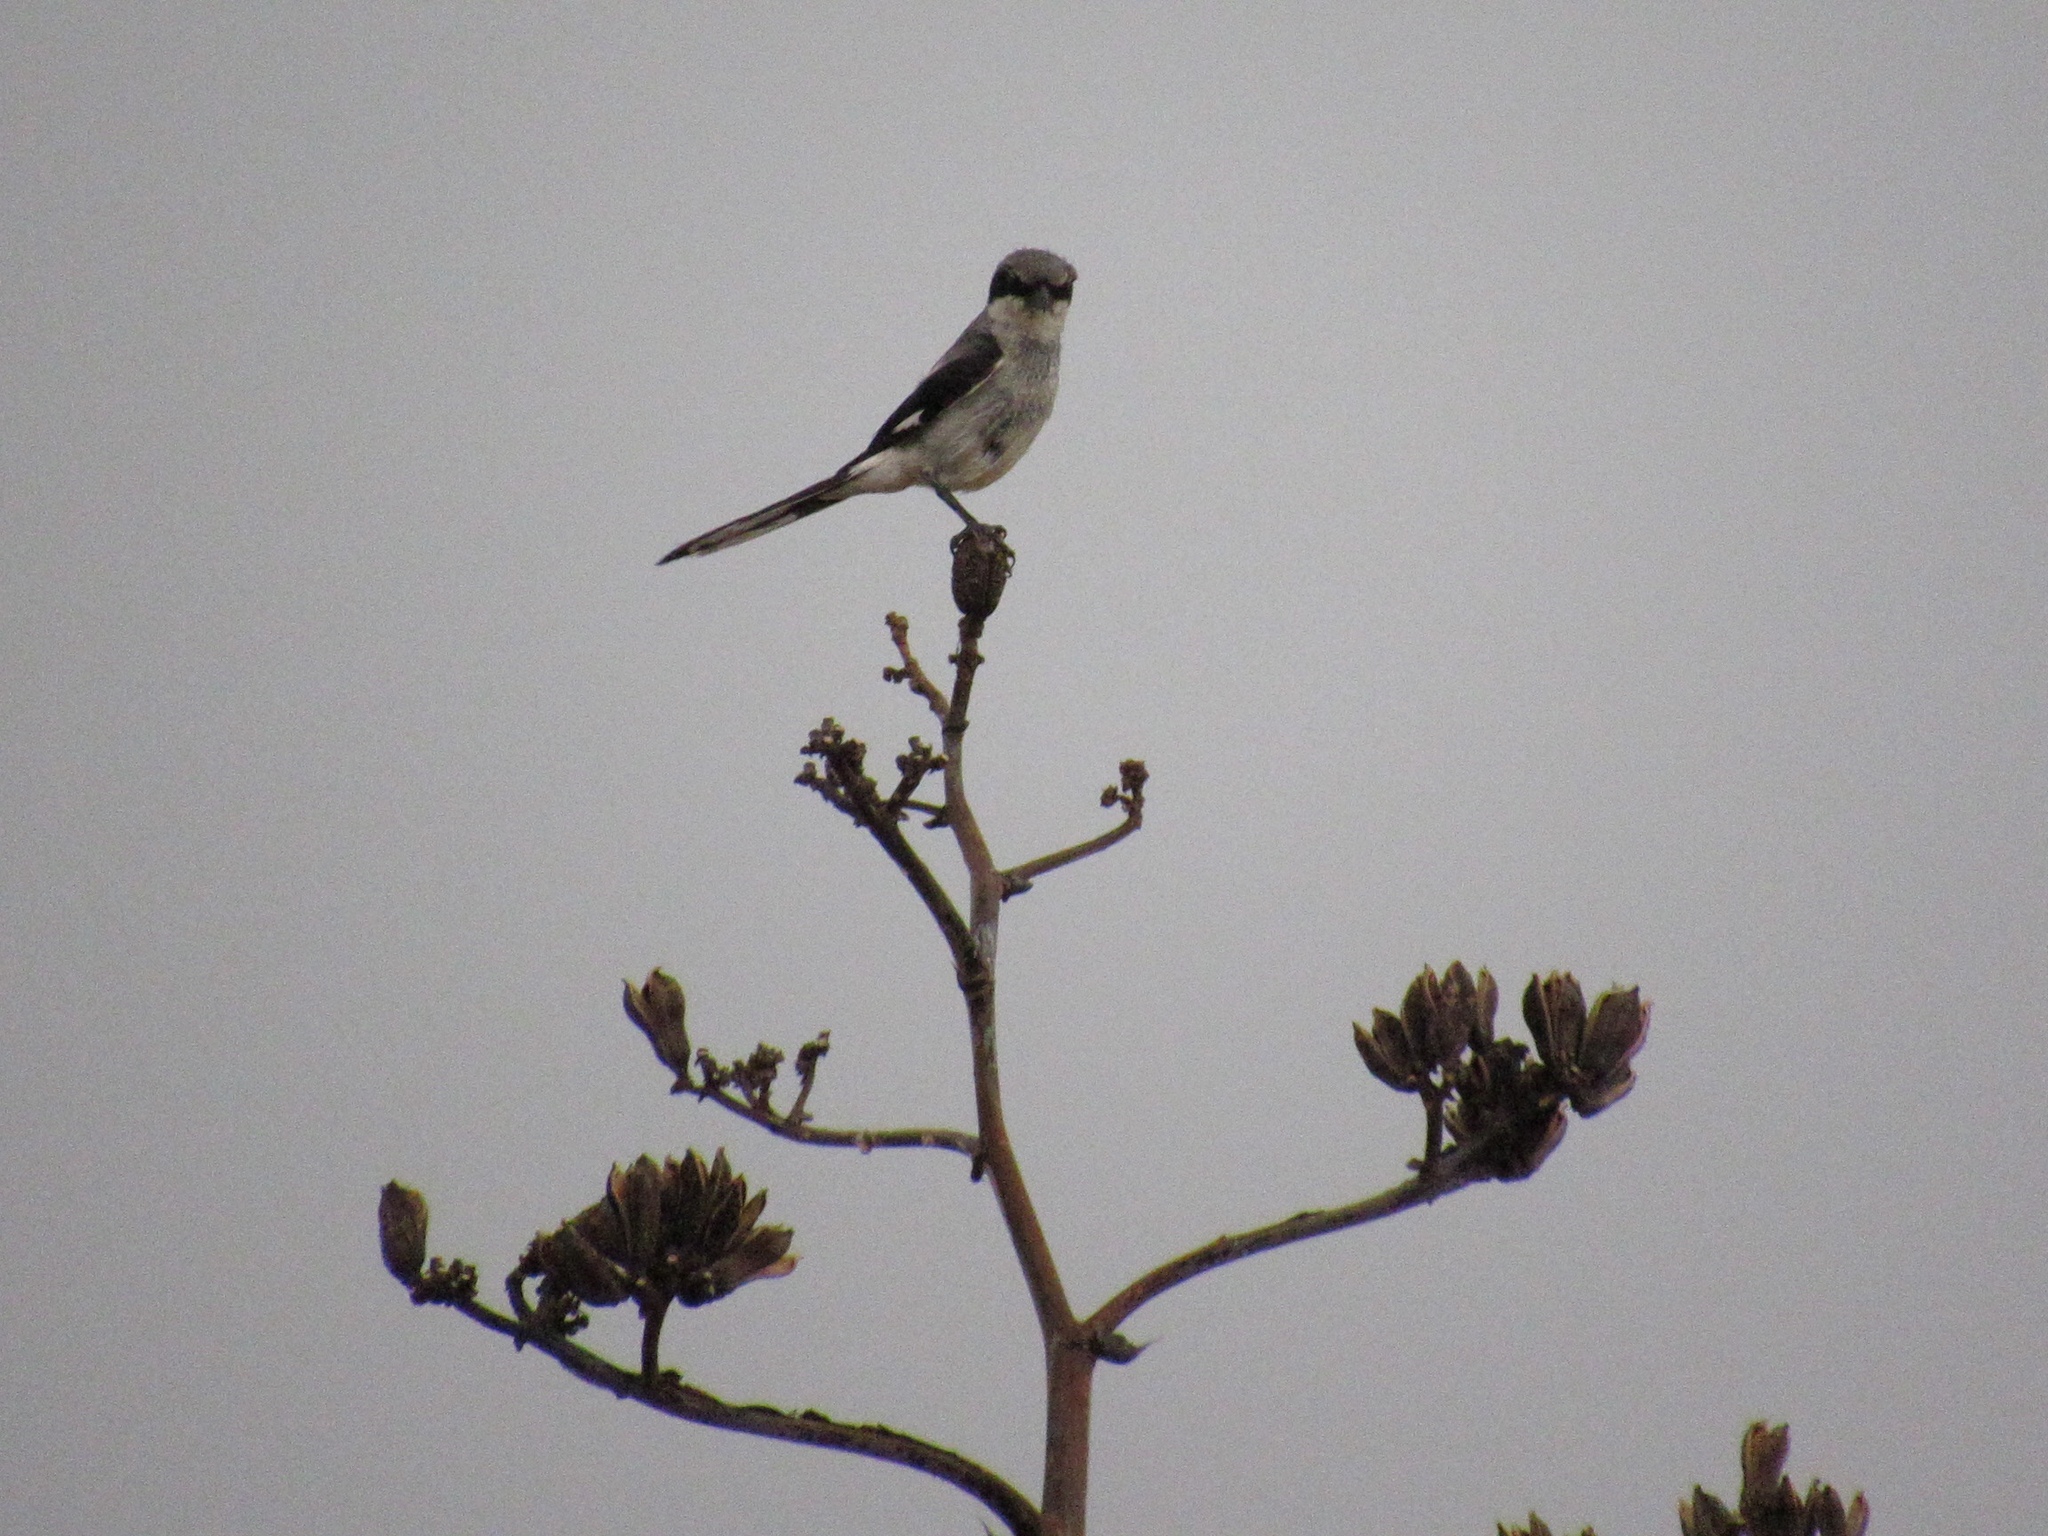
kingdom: Animalia
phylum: Chordata
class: Aves
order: Passeriformes
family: Laniidae
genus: Lanius
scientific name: Lanius ludovicianus
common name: Loggerhead shrike
